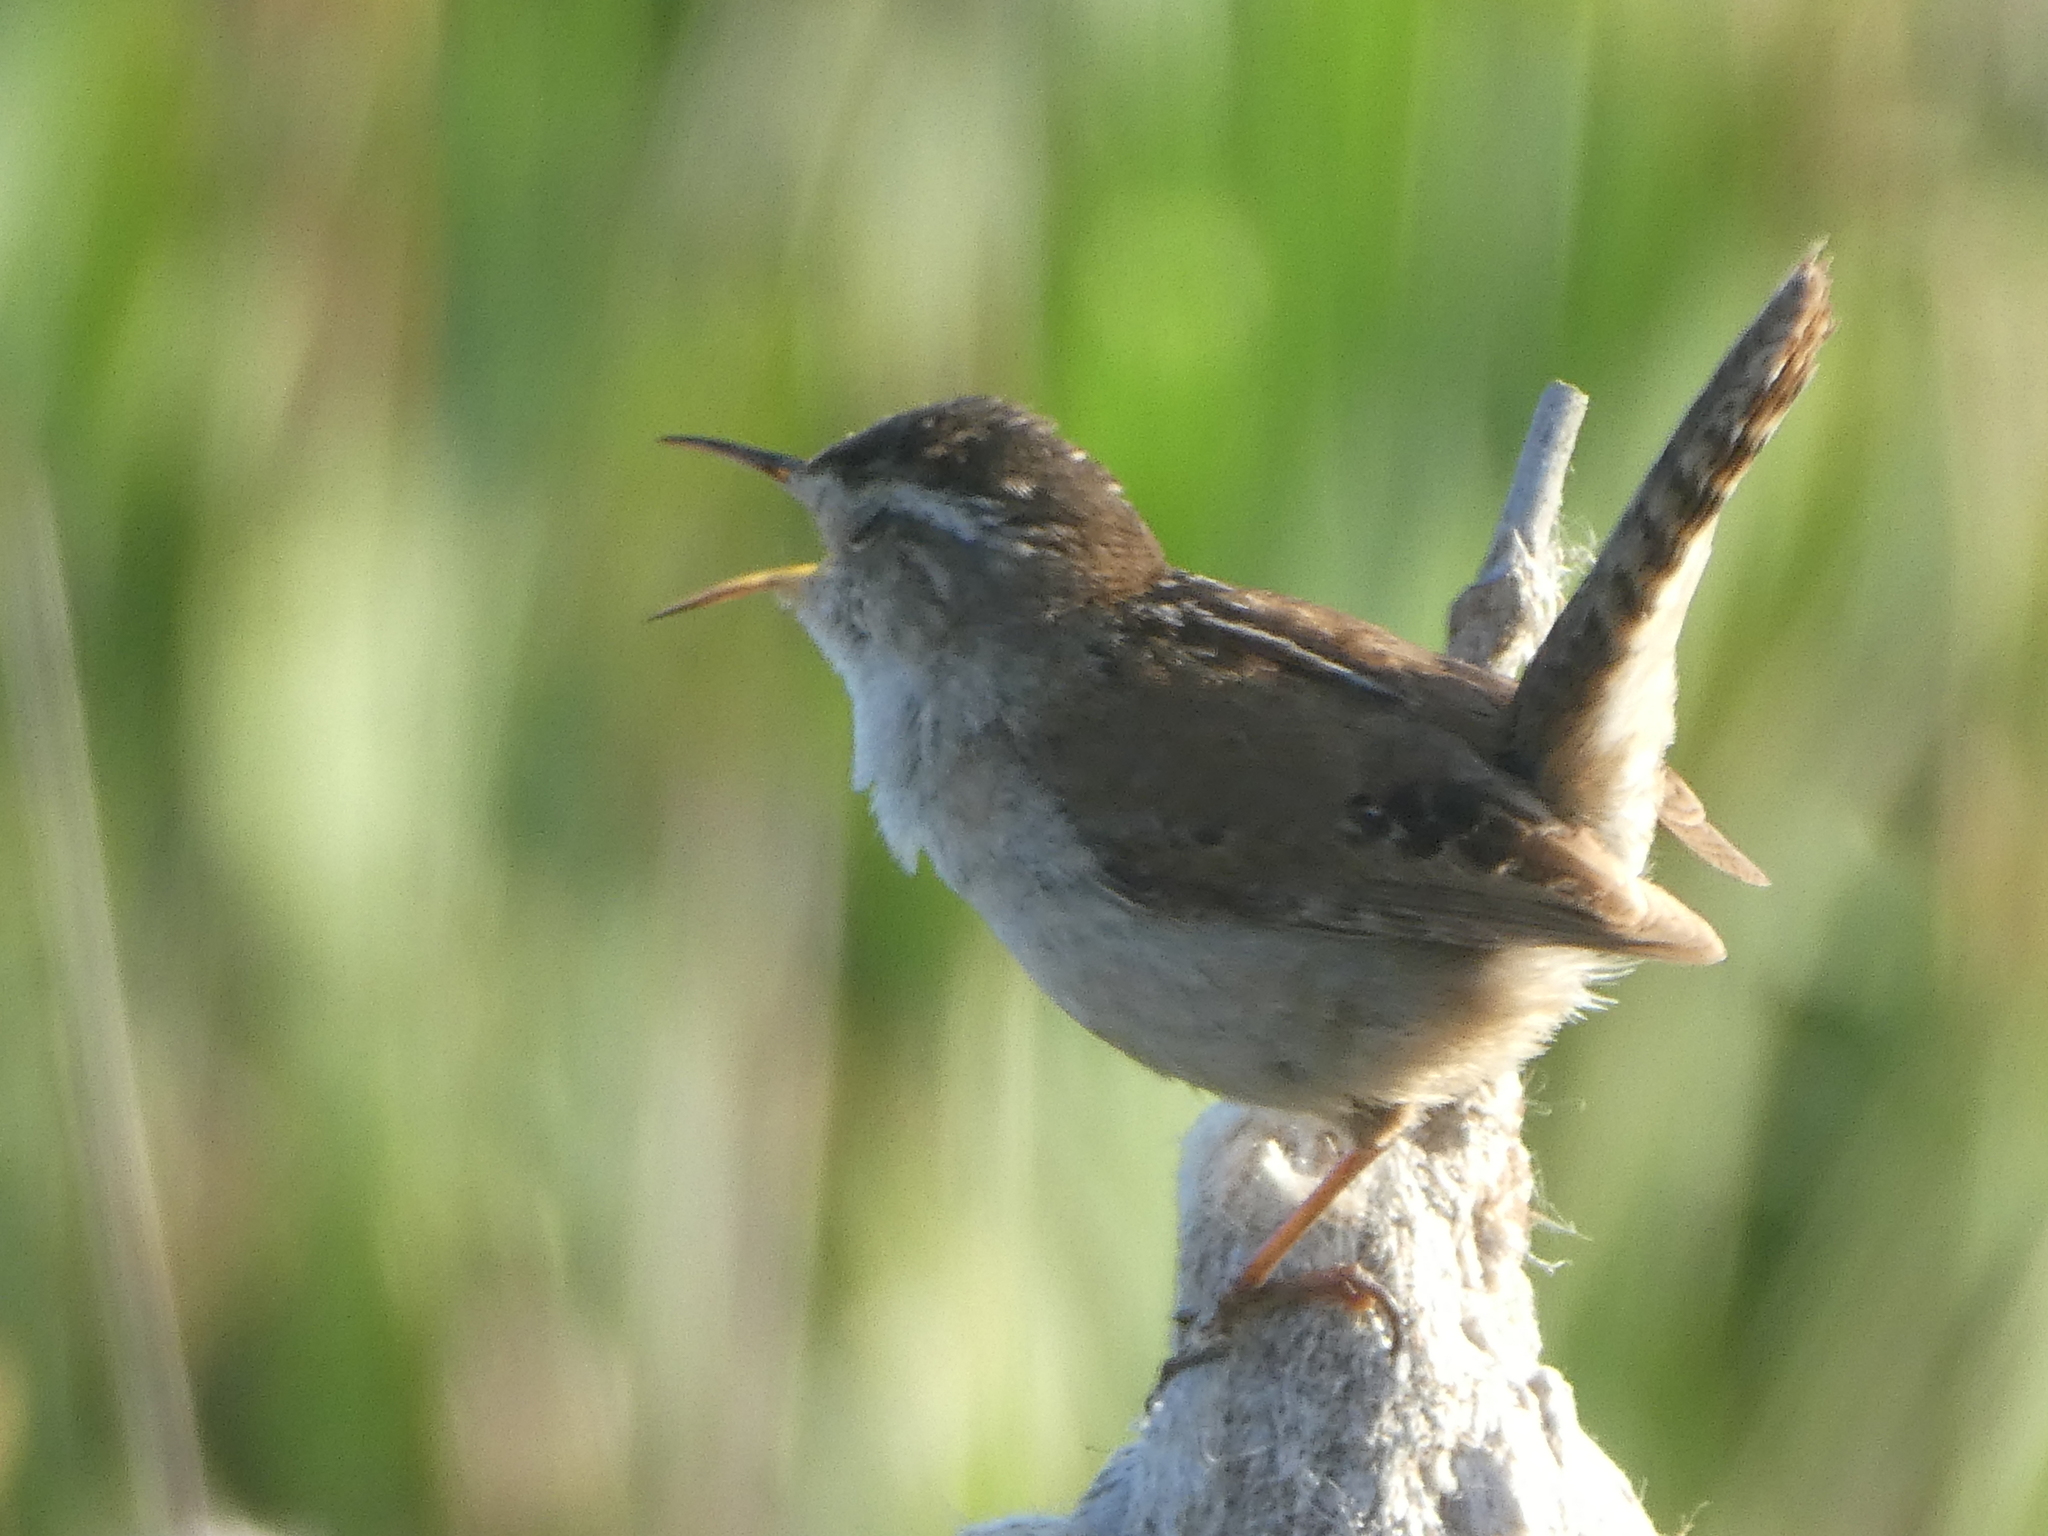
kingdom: Animalia
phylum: Chordata
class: Aves
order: Passeriformes
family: Troglodytidae
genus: Cistothorus
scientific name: Cistothorus palustris
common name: Marsh wren
